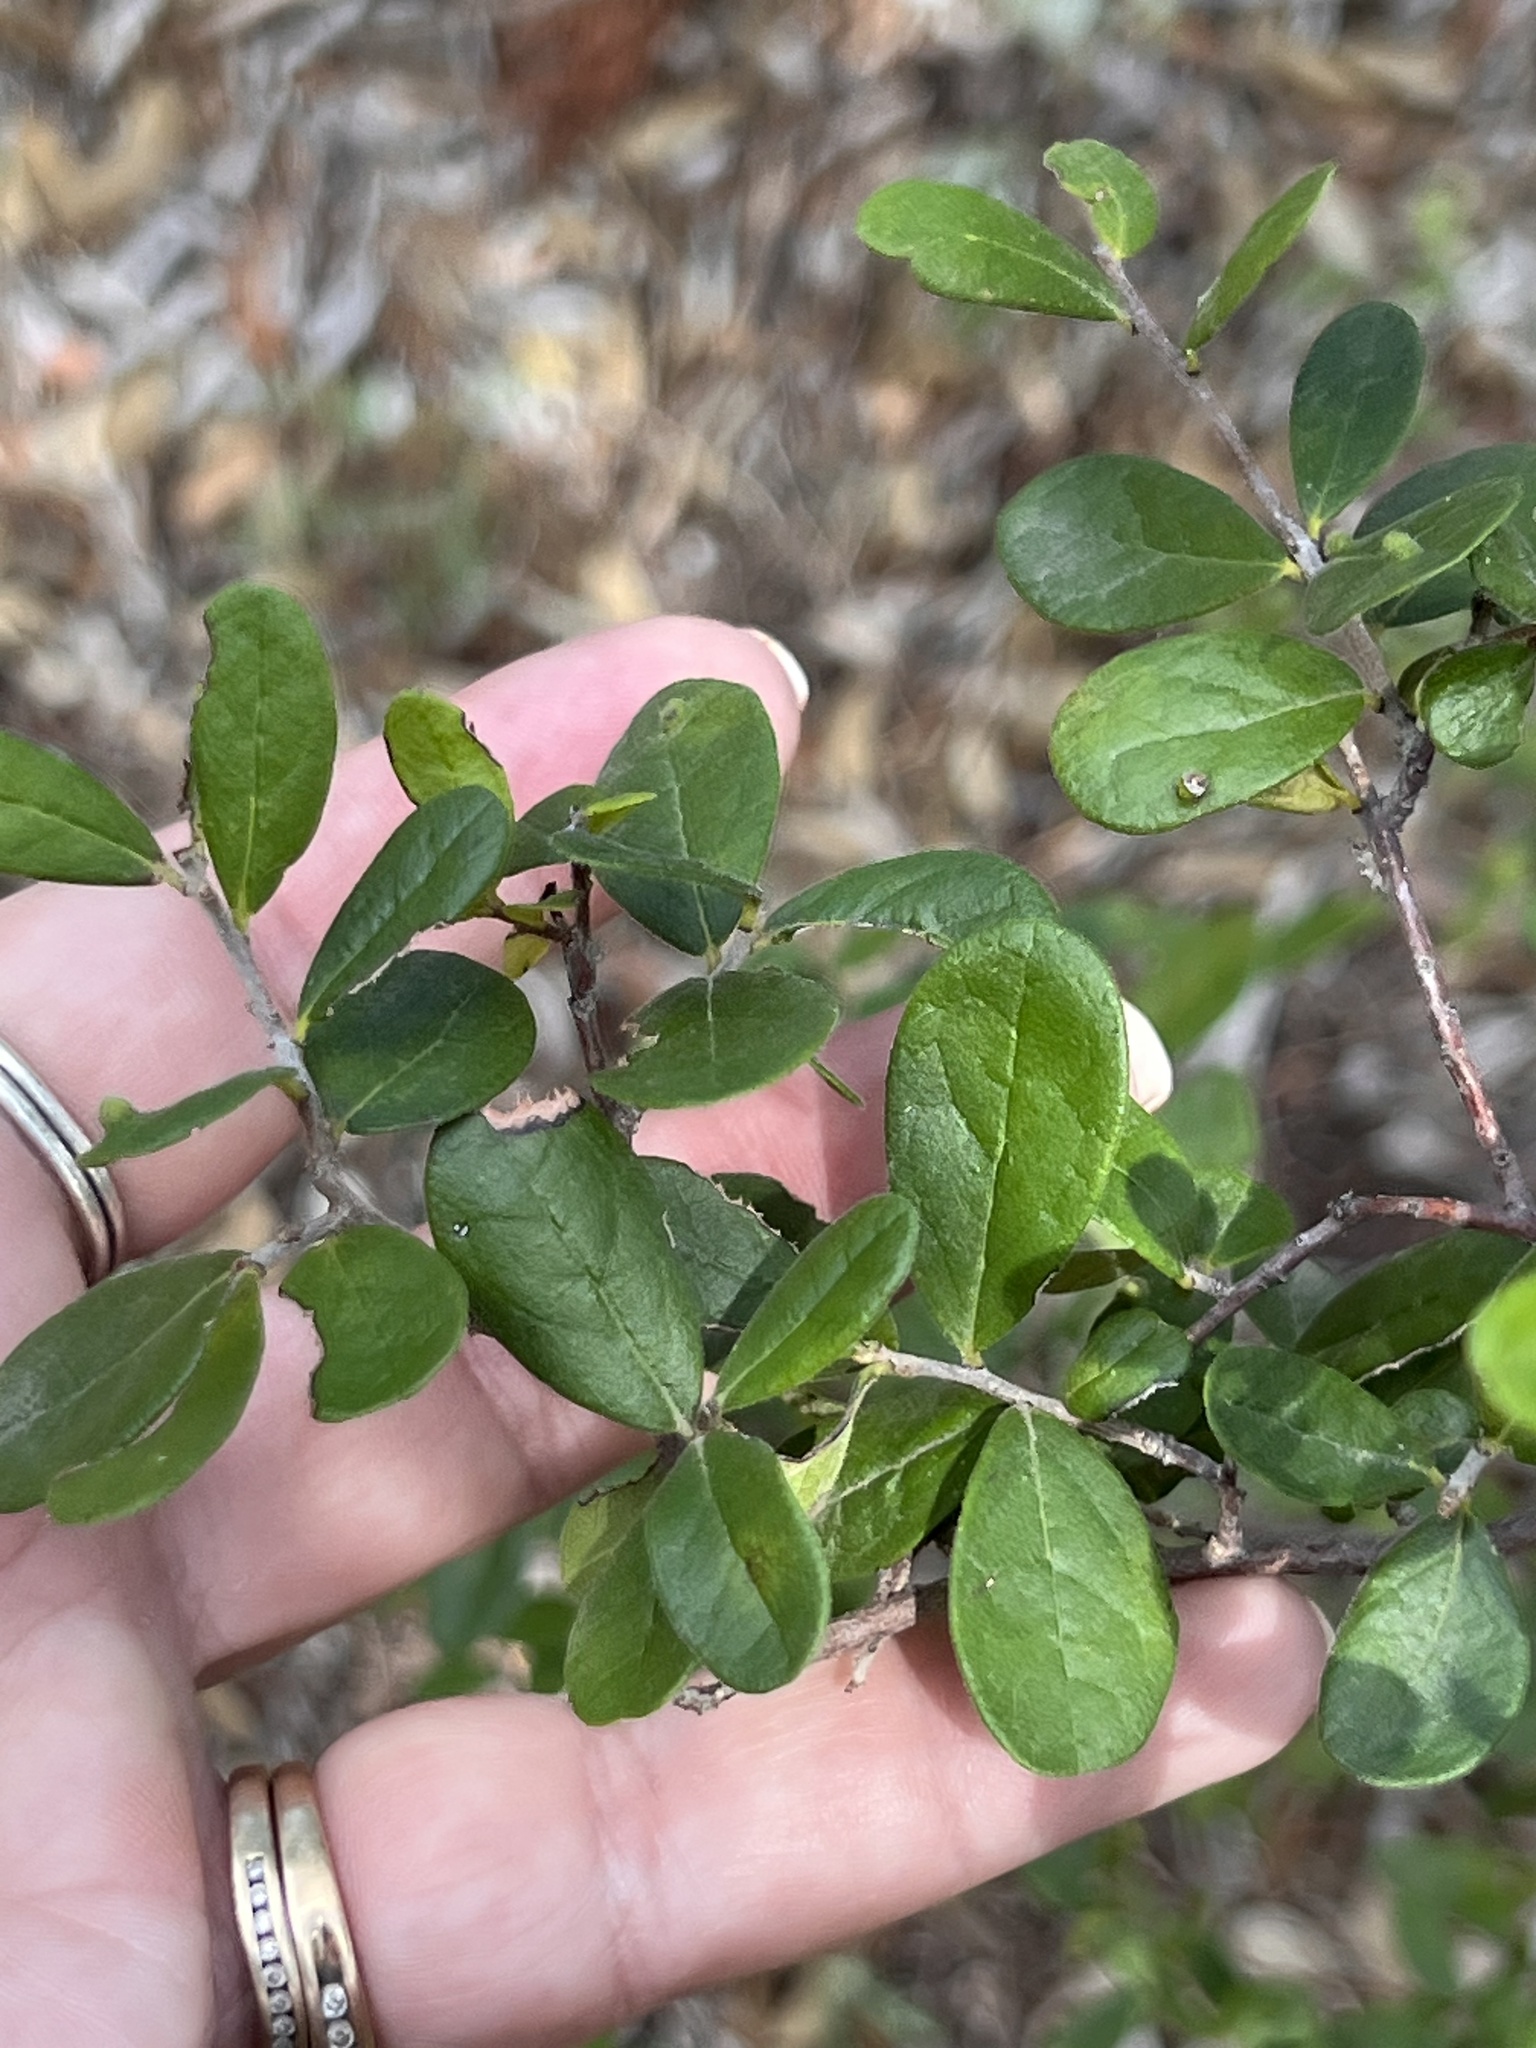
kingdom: Plantae
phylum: Tracheophyta
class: Magnoliopsida
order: Ericales
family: Ebenaceae
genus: Diospyros
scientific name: Diospyros texana
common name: Texas persimmon
